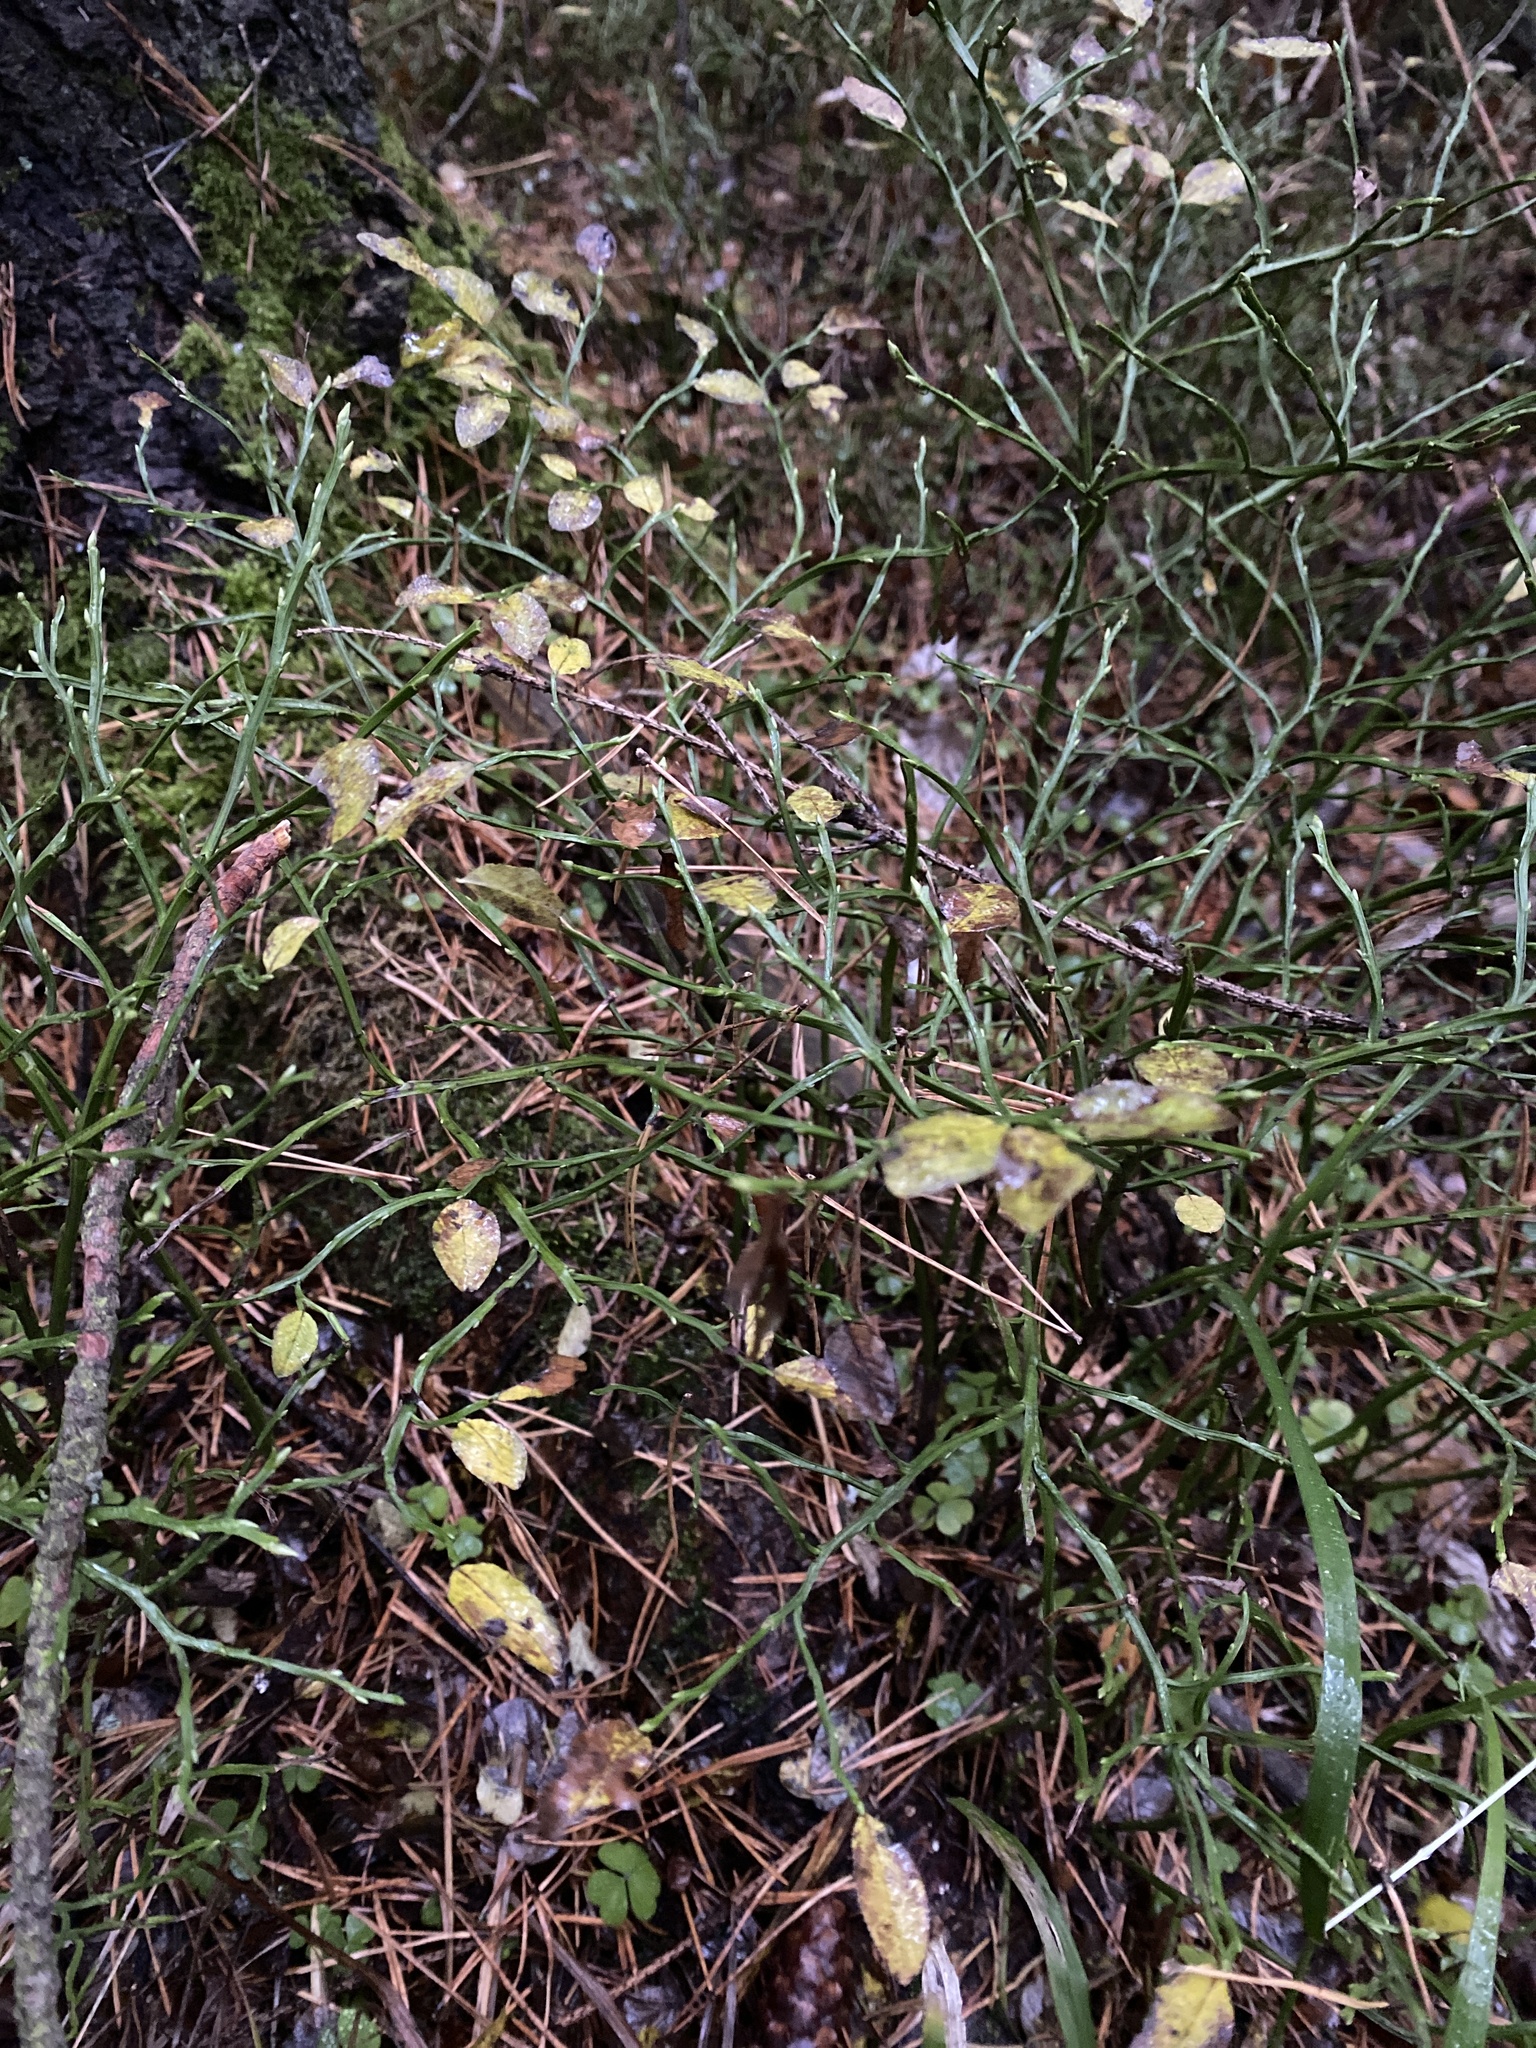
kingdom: Plantae
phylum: Tracheophyta
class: Magnoliopsida
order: Ericales
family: Ericaceae
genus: Vaccinium
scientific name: Vaccinium myrtillus
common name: Bilberry
